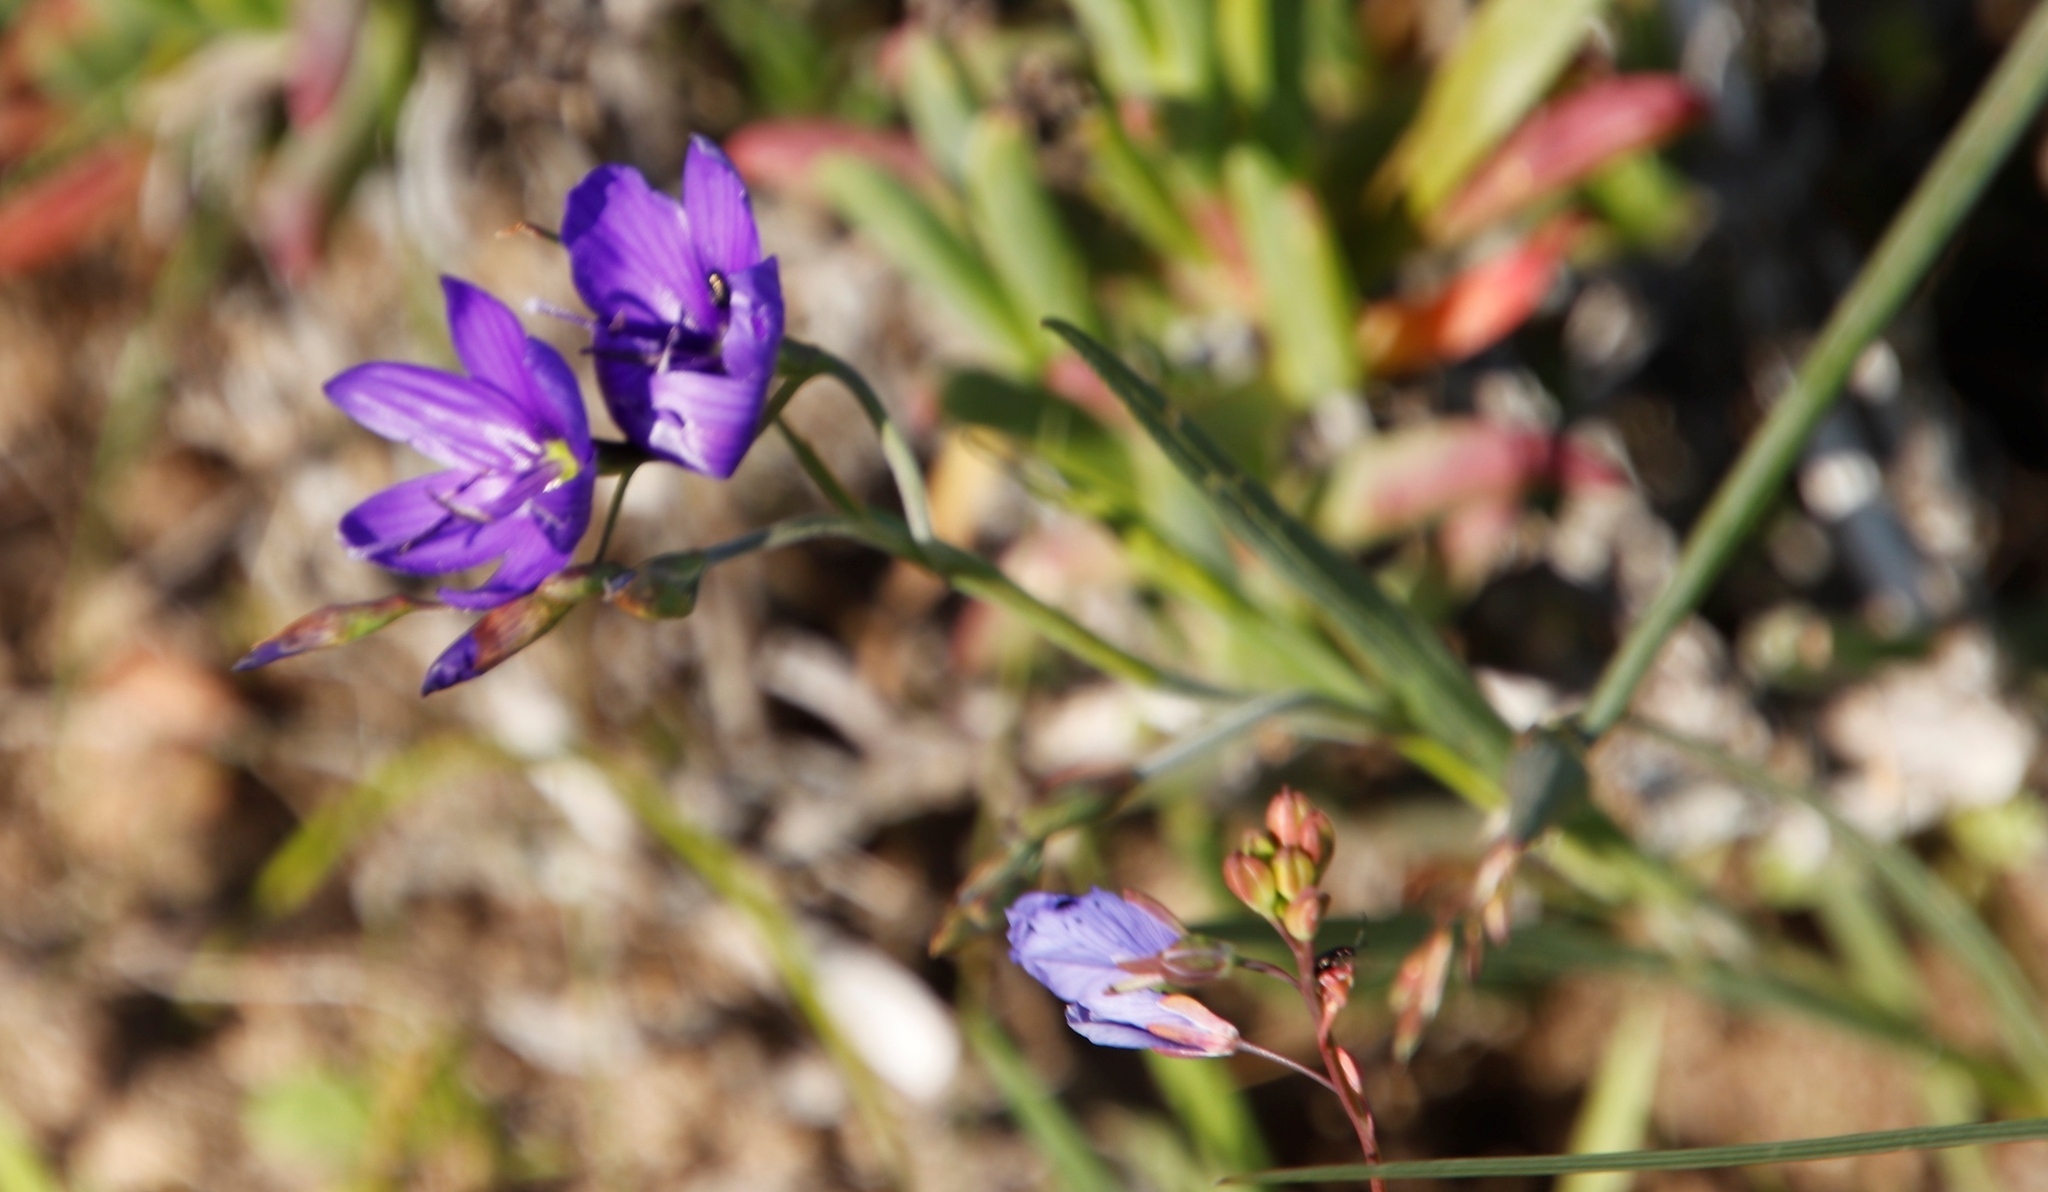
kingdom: Plantae
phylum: Tracheophyta
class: Liliopsida
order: Asparagales
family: Iridaceae
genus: Geissorhiza
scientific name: Geissorhiza aspera
